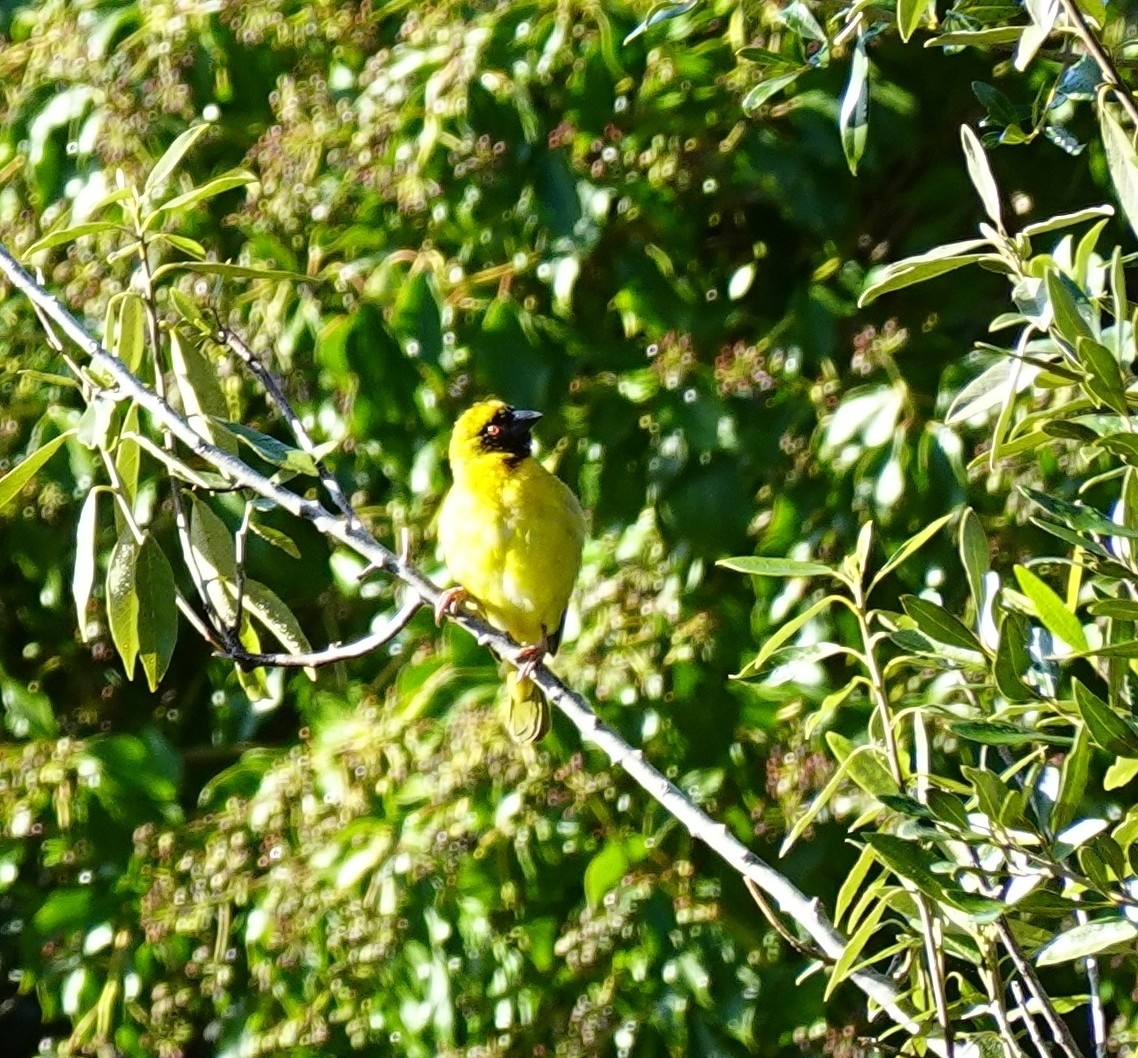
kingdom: Animalia
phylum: Chordata
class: Aves
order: Passeriformes
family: Ploceidae
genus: Ploceus
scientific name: Ploceus velatus
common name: Southern masked weaver
